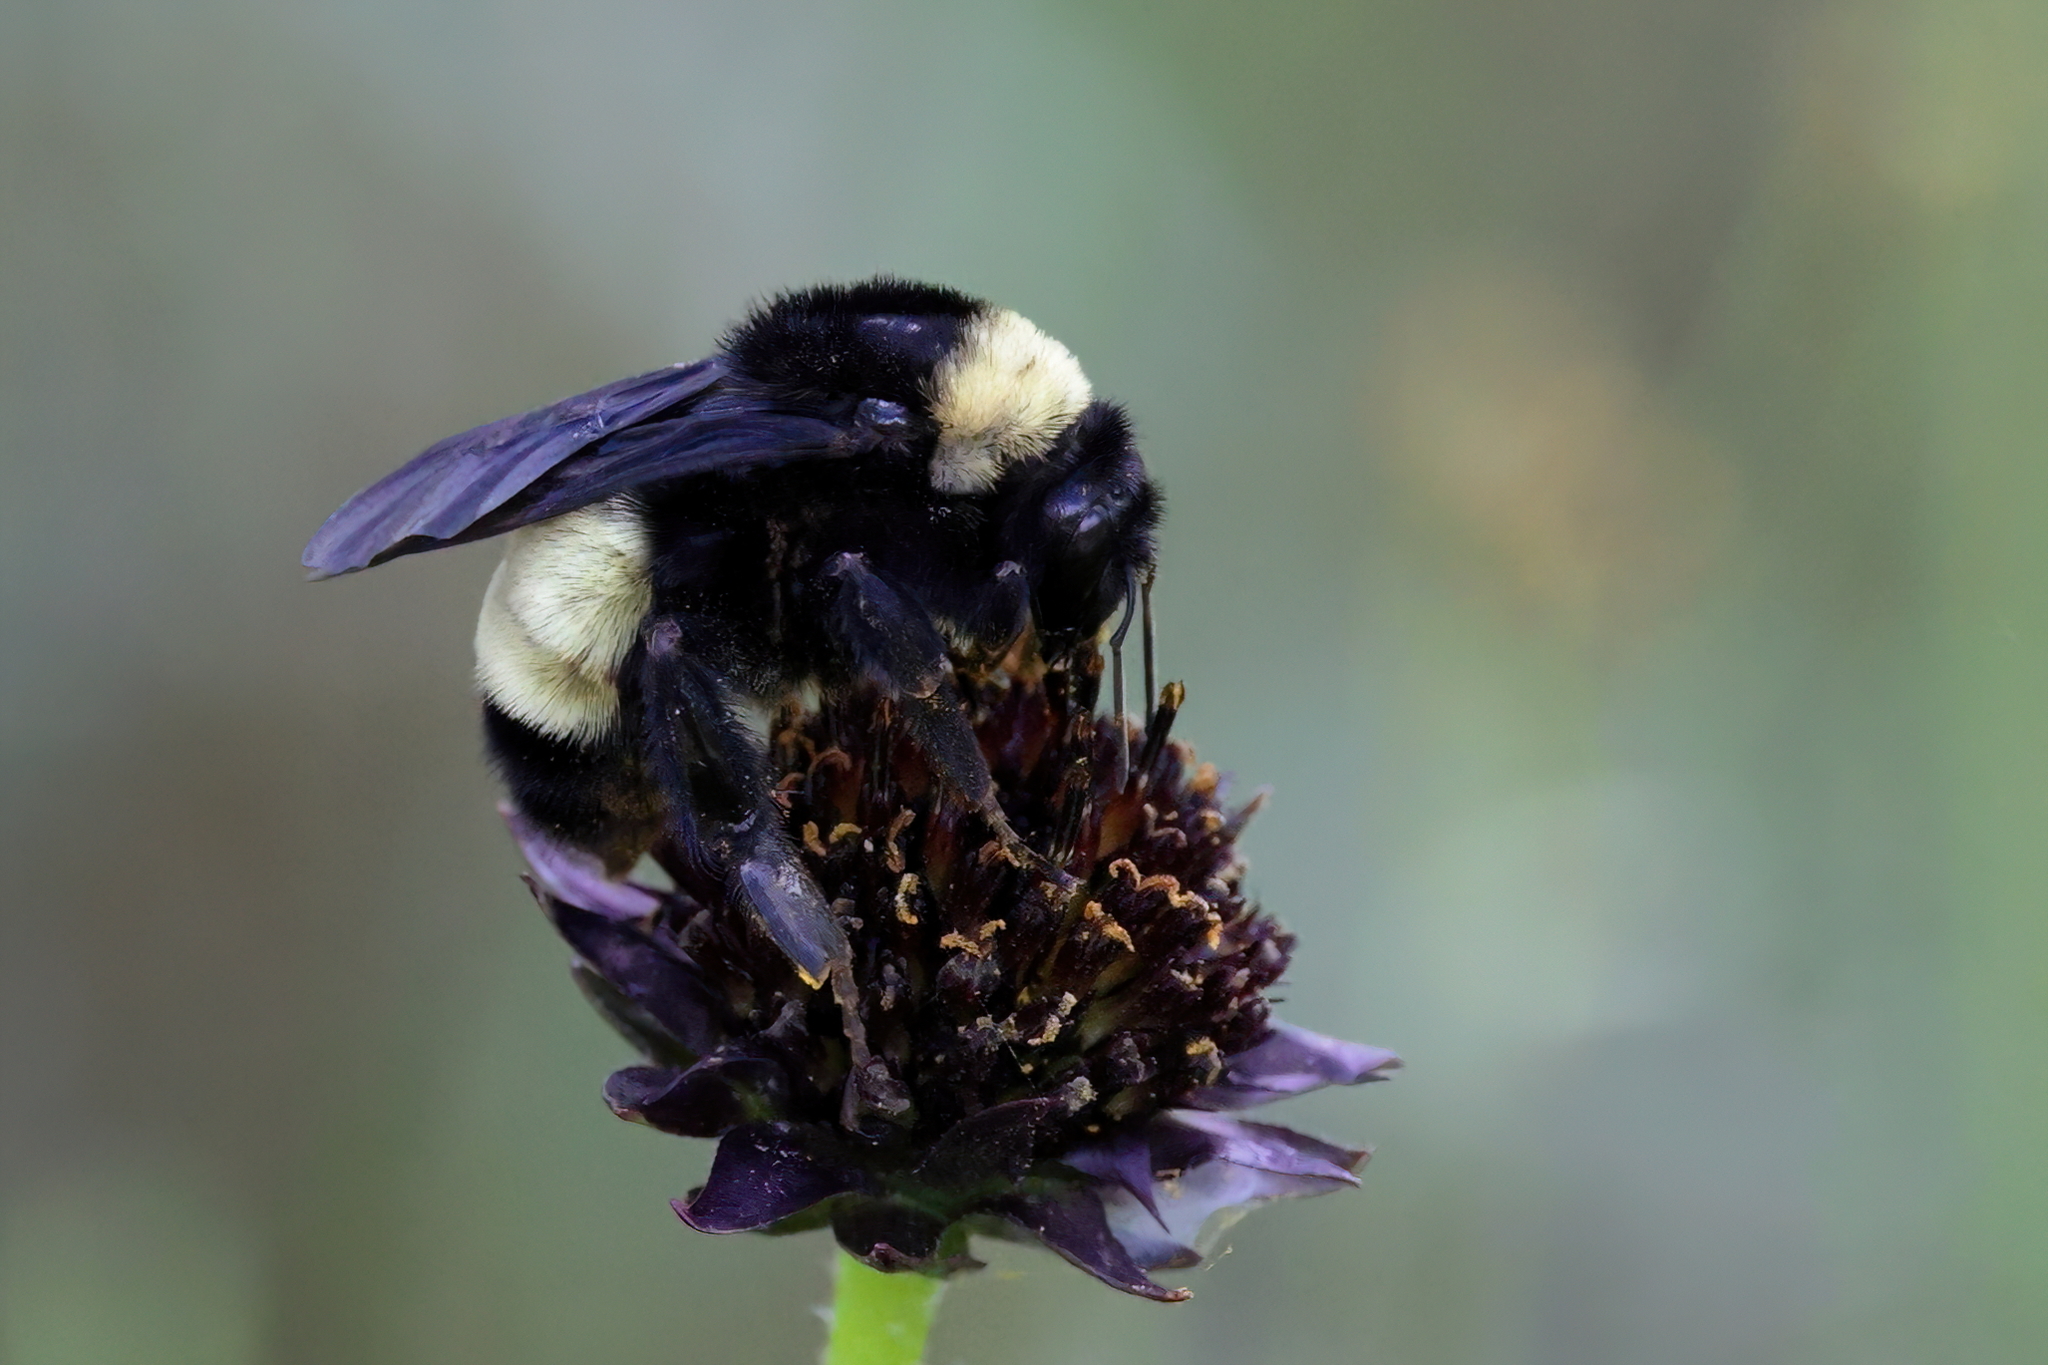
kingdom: Animalia
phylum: Arthropoda
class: Insecta
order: Hymenoptera
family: Apidae
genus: Bombus
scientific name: Bombus pensylvanicus
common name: Bumble bee
